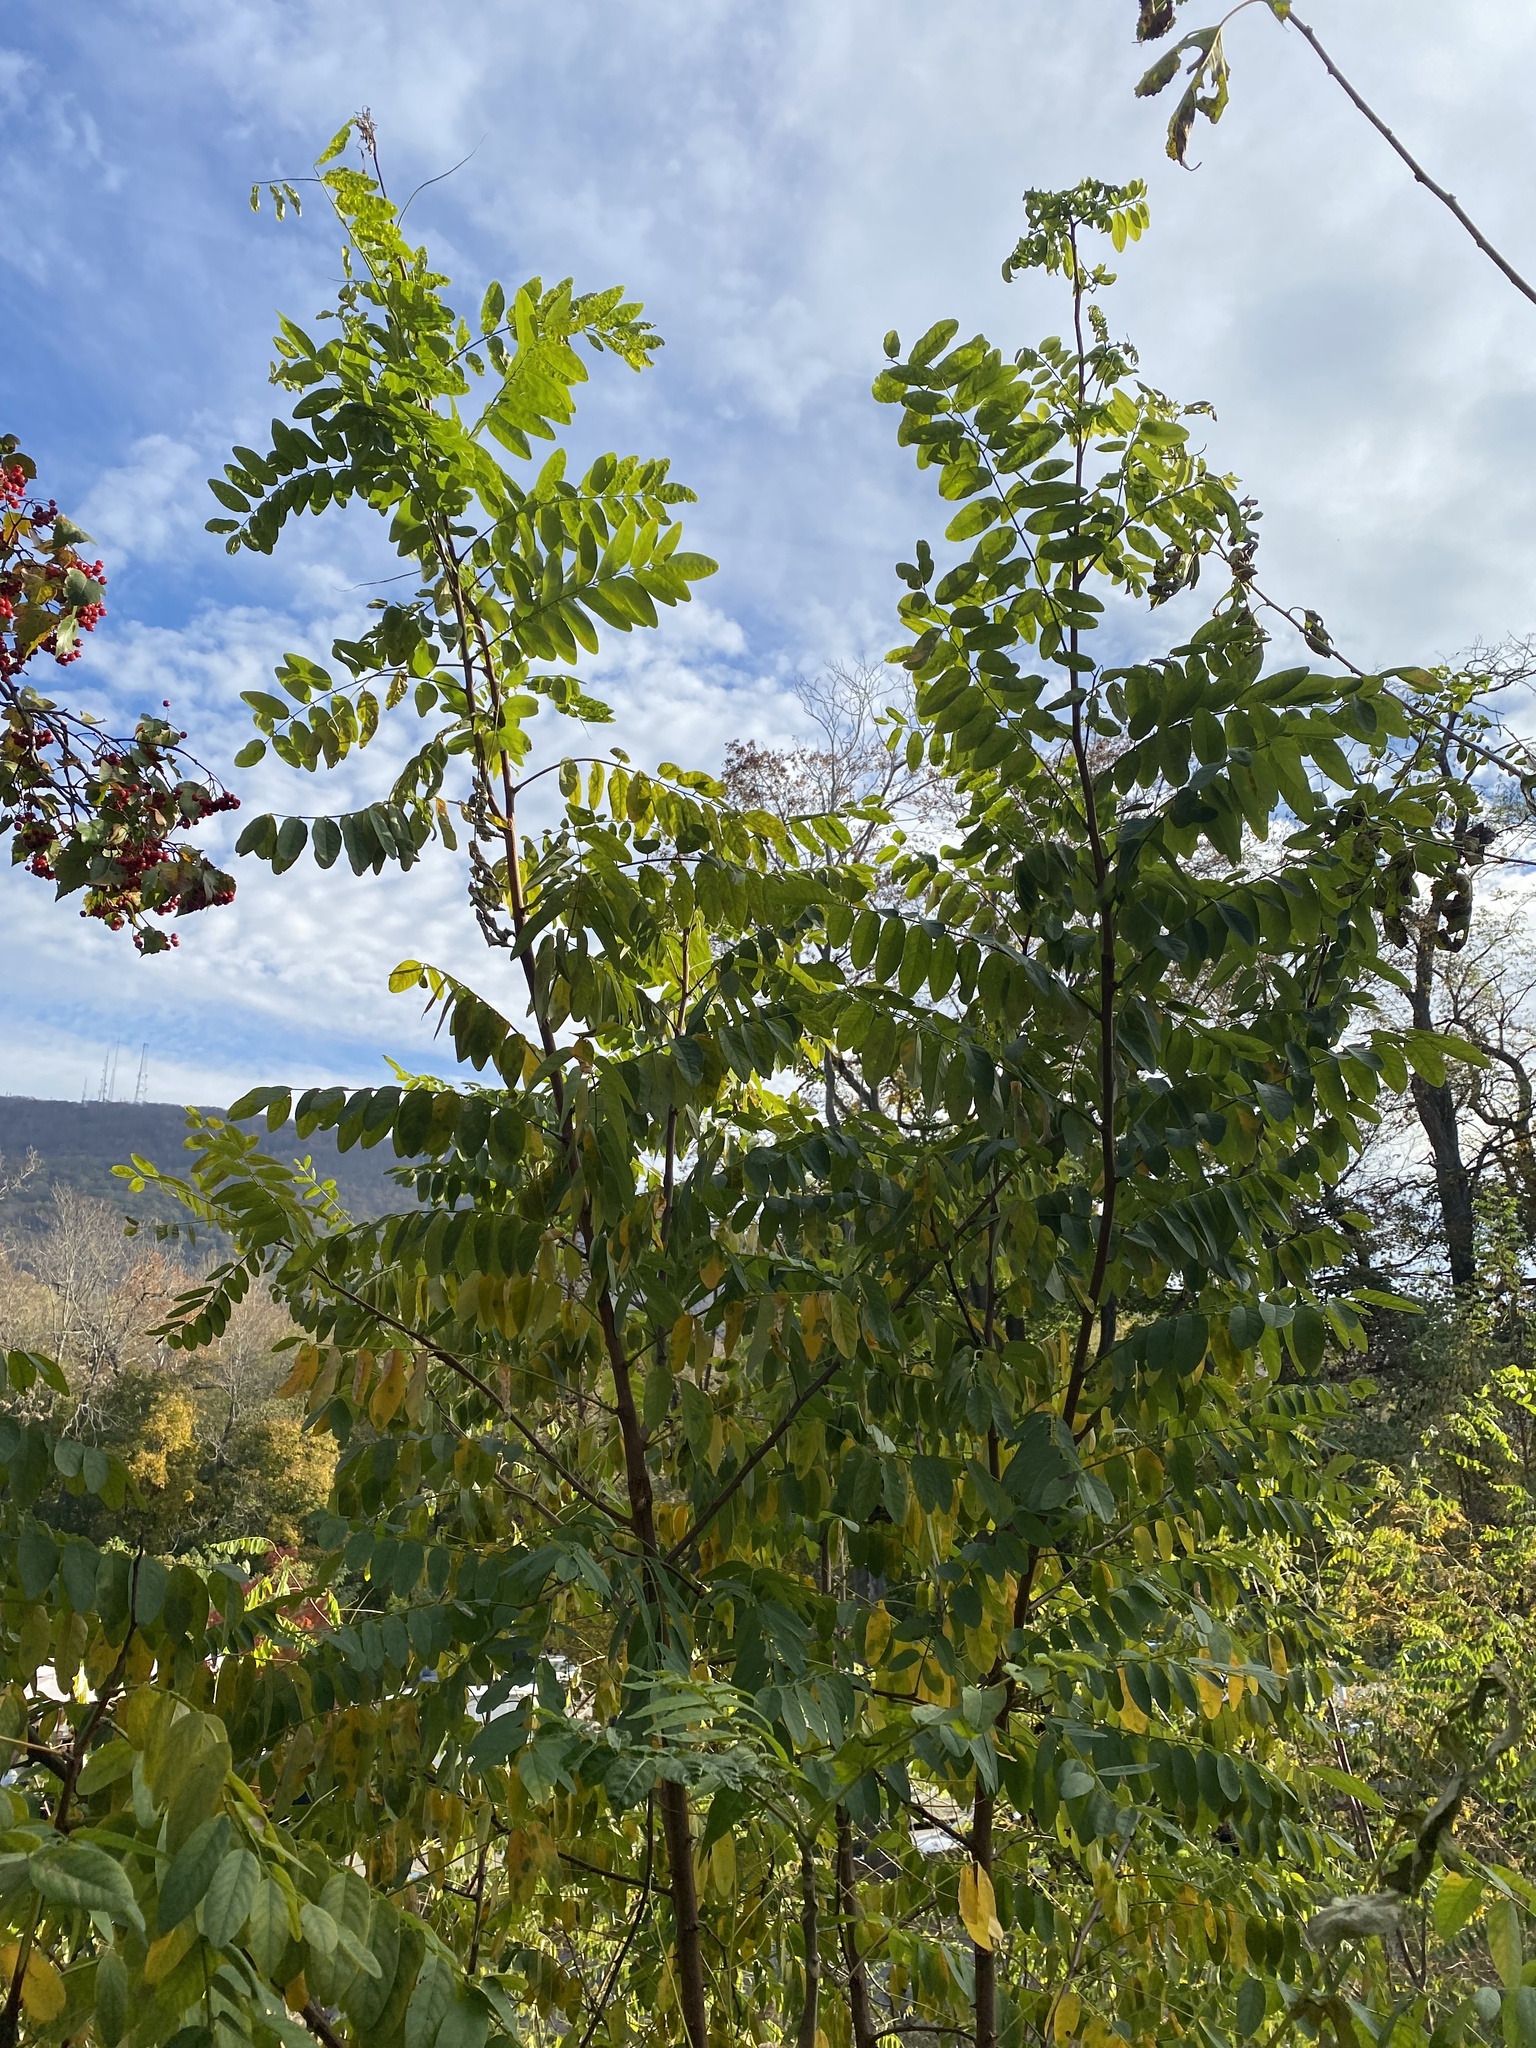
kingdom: Plantae
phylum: Tracheophyta
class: Magnoliopsida
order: Fabales
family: Fabaceae
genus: Robinia
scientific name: Robinia pseudoacacia
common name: Black locust
